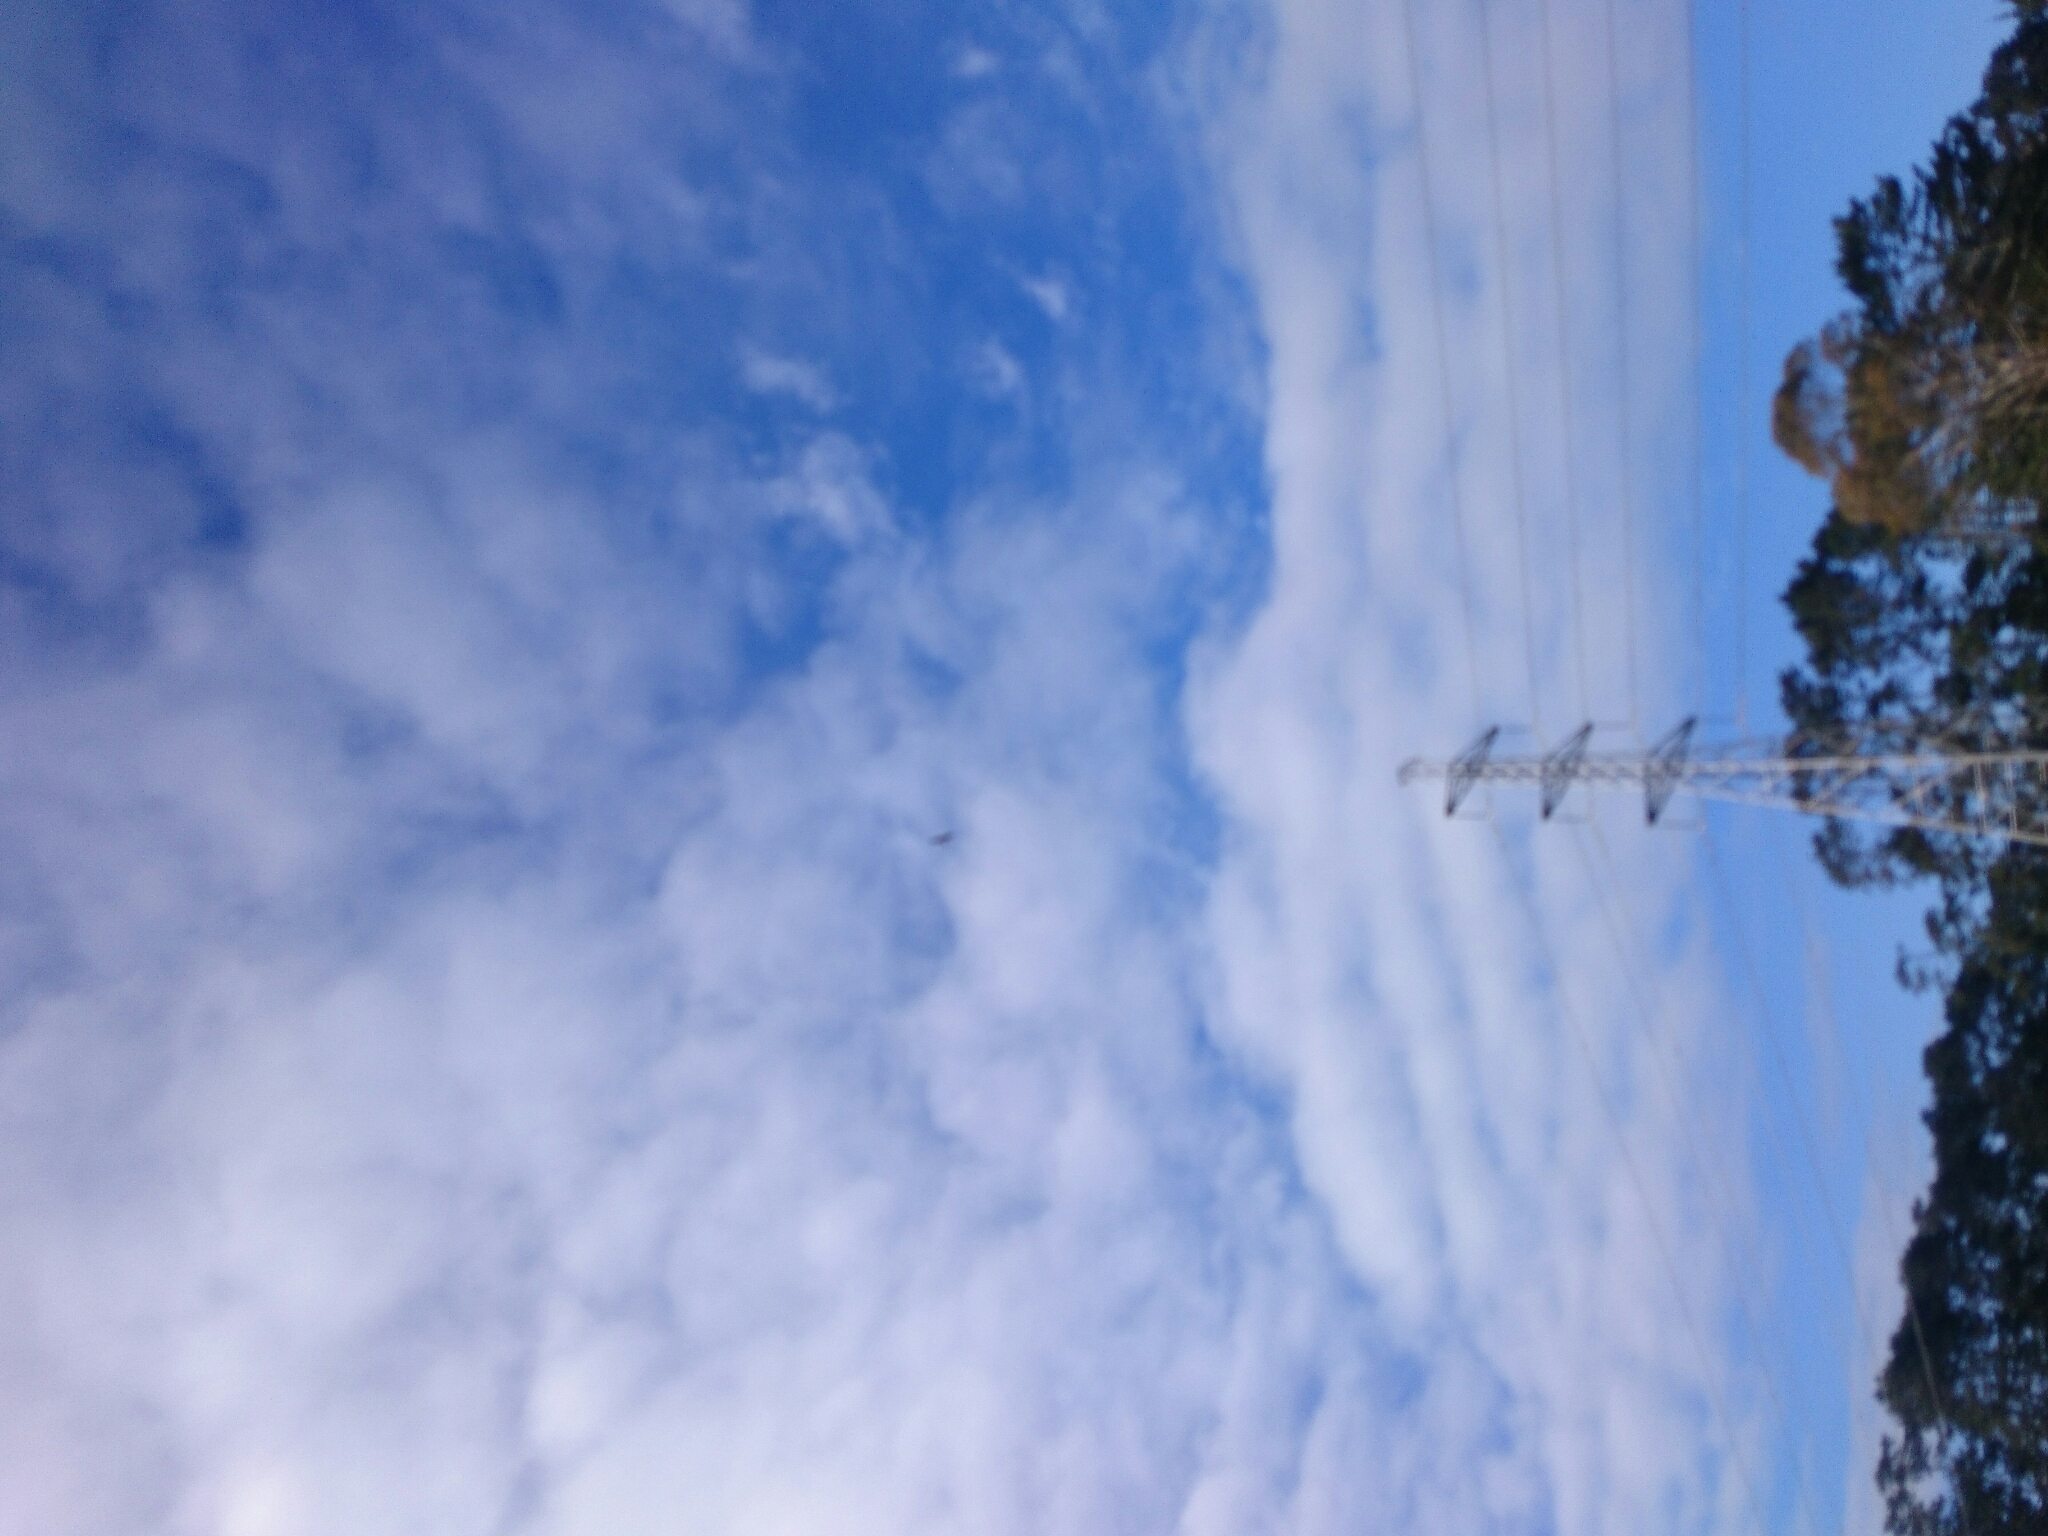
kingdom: Animalia
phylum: Chordata
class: Aves
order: Accipitriformes
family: Accipitridae
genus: Circus
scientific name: Circus approximans
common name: Swamp harrier
